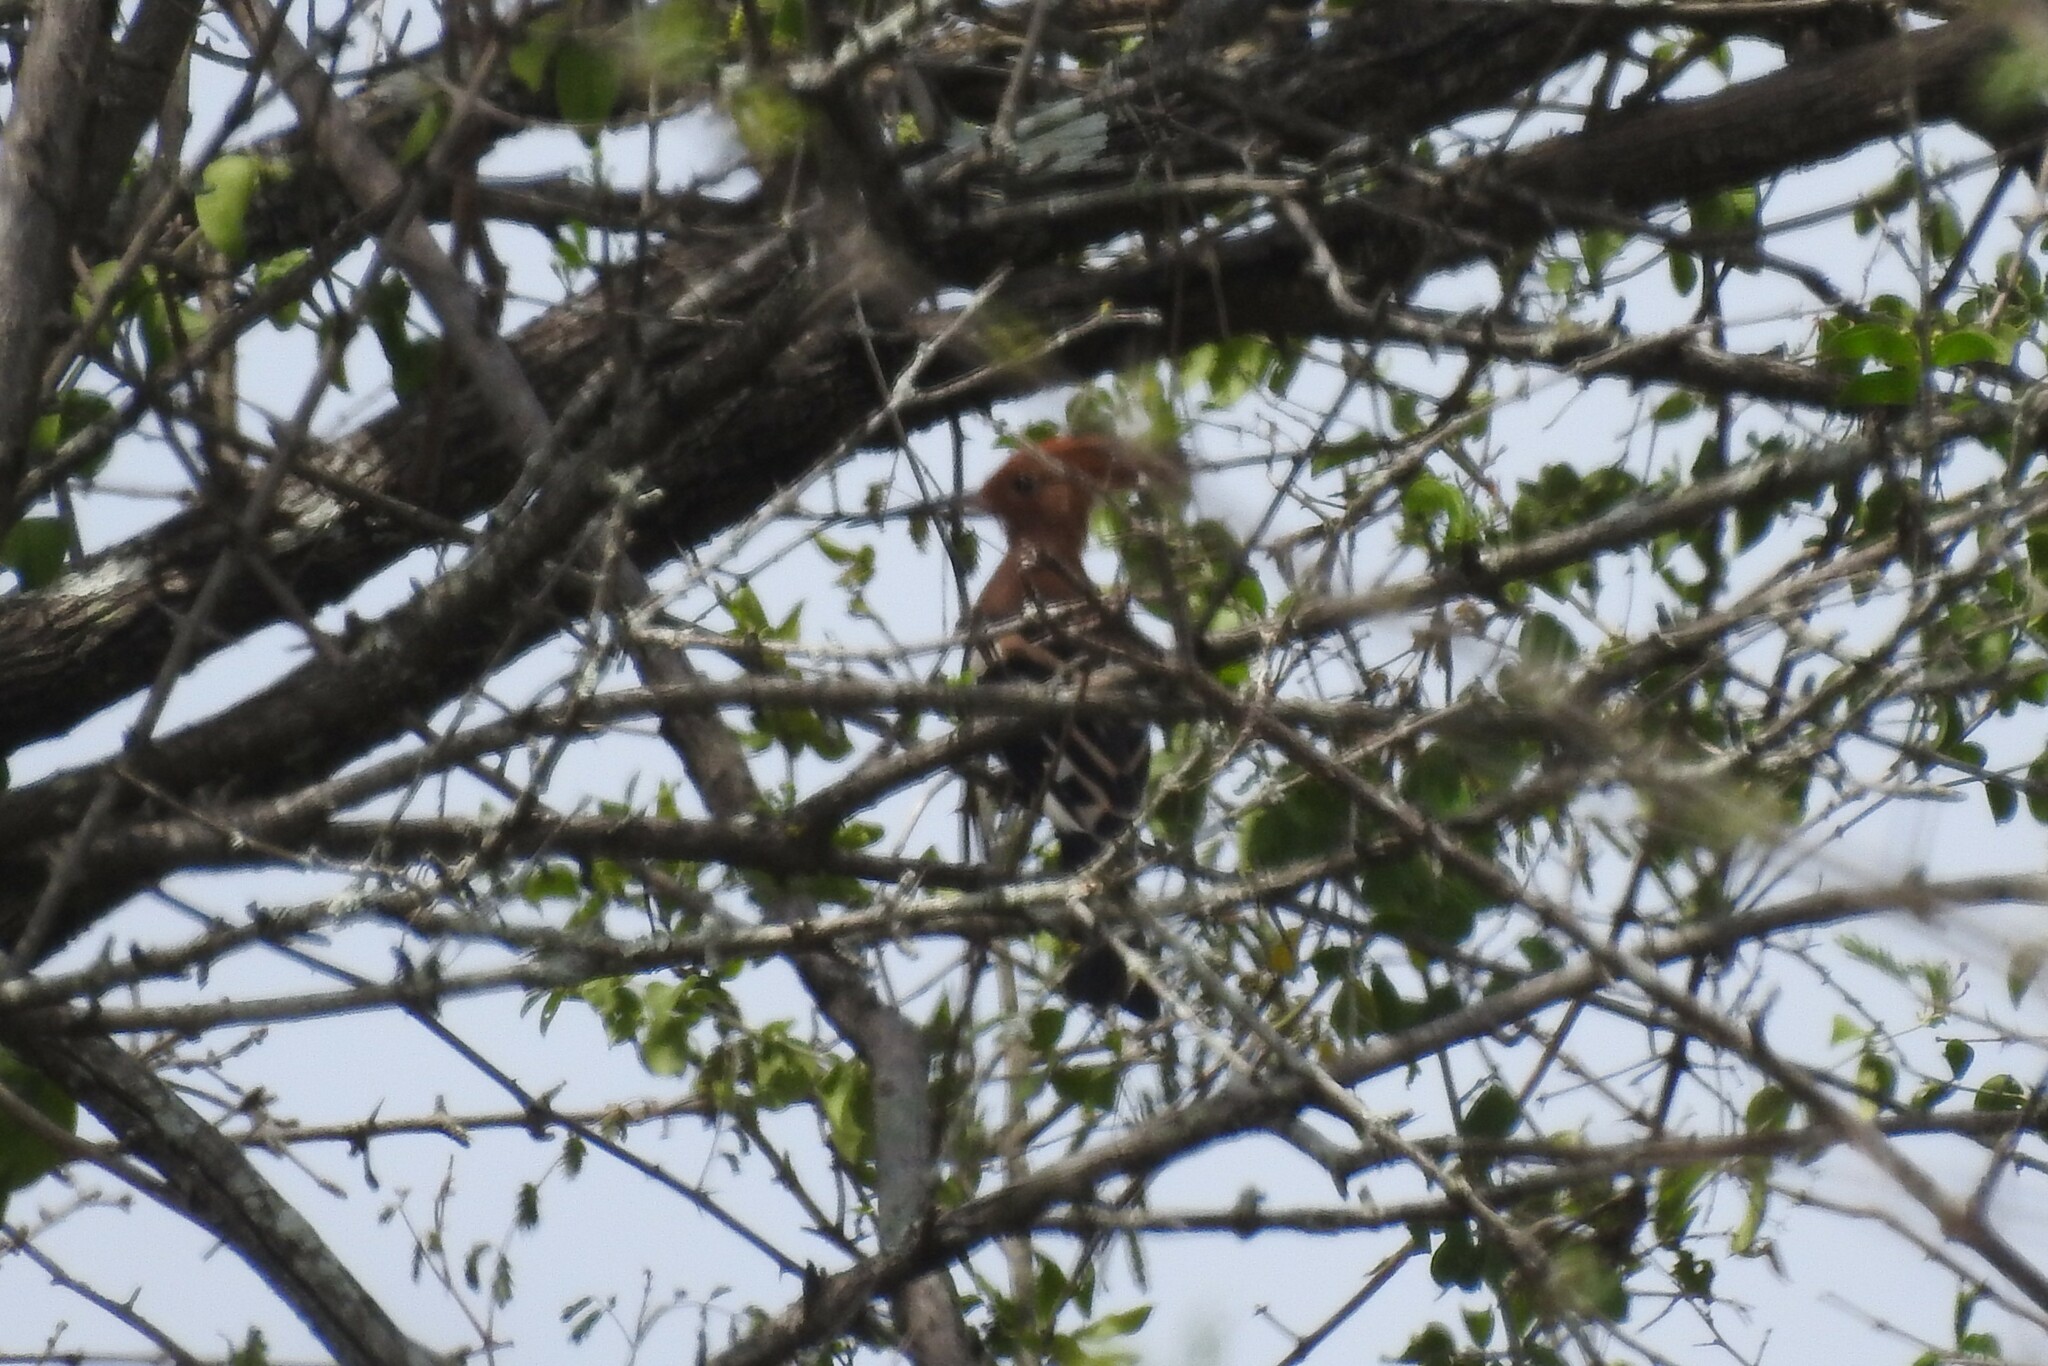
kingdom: Animalia
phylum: Chordata
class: Aves
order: Bucerotiformes
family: Upupidae
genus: Upupa
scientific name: Upupa epops
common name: Eurasian hoopoe
